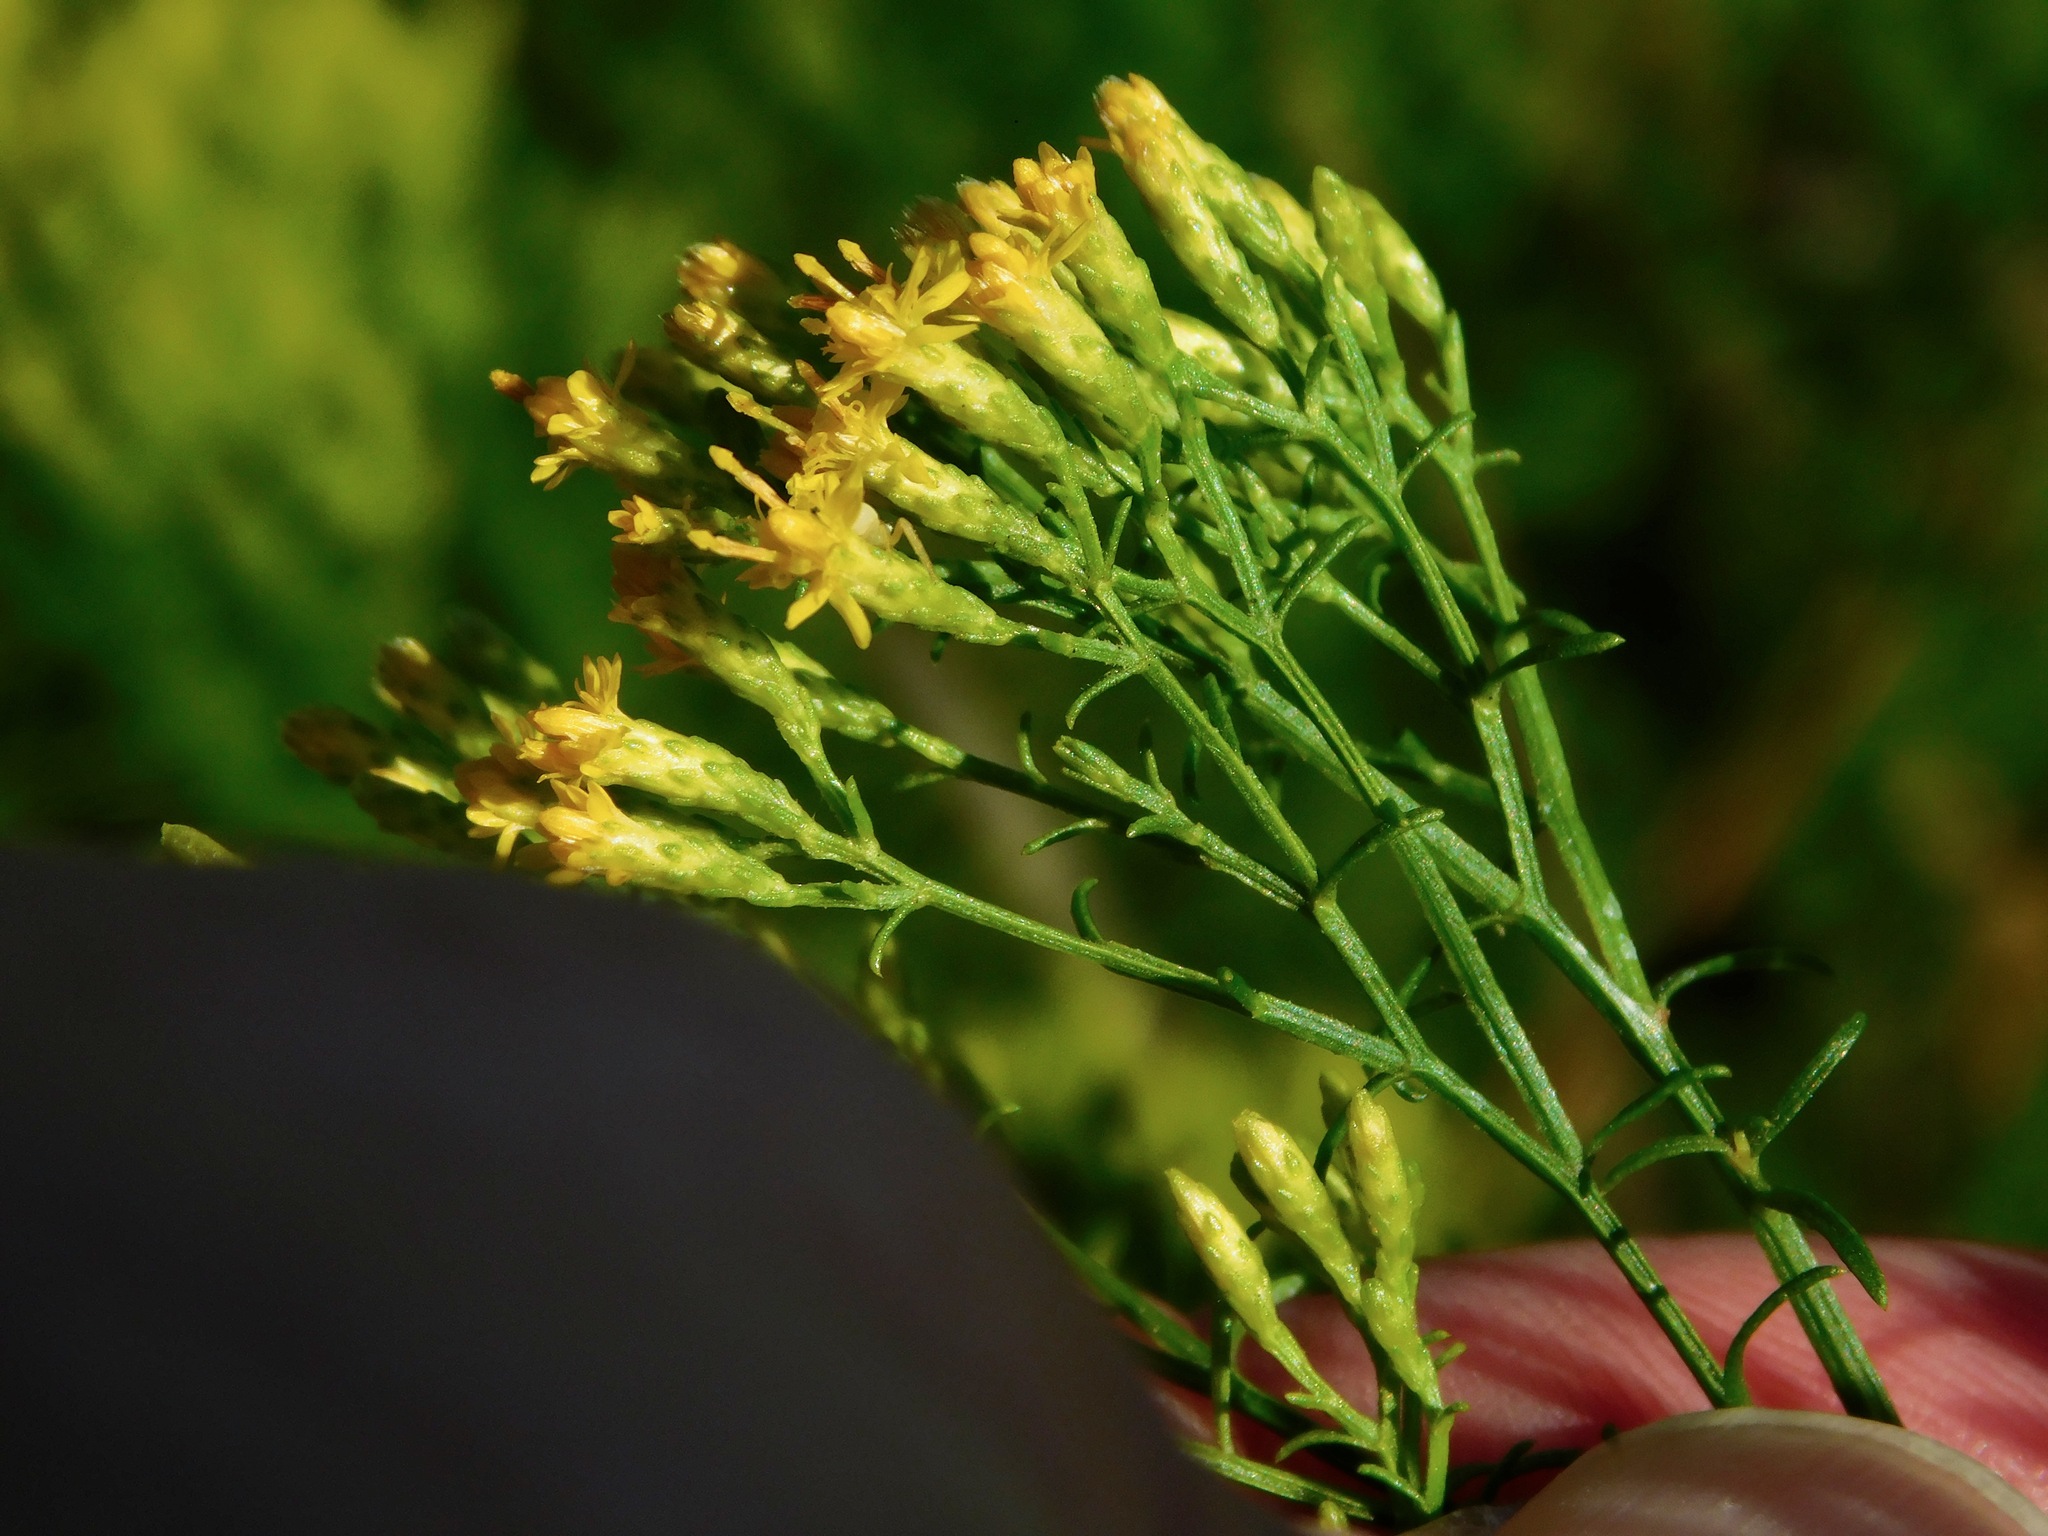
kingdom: Plantae
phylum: Tracheophyta
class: Magnoliopsida
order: Asterales
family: Asteraceae
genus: Euthamia
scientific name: Euthamia caroliniana
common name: Coastal plain goldentop
